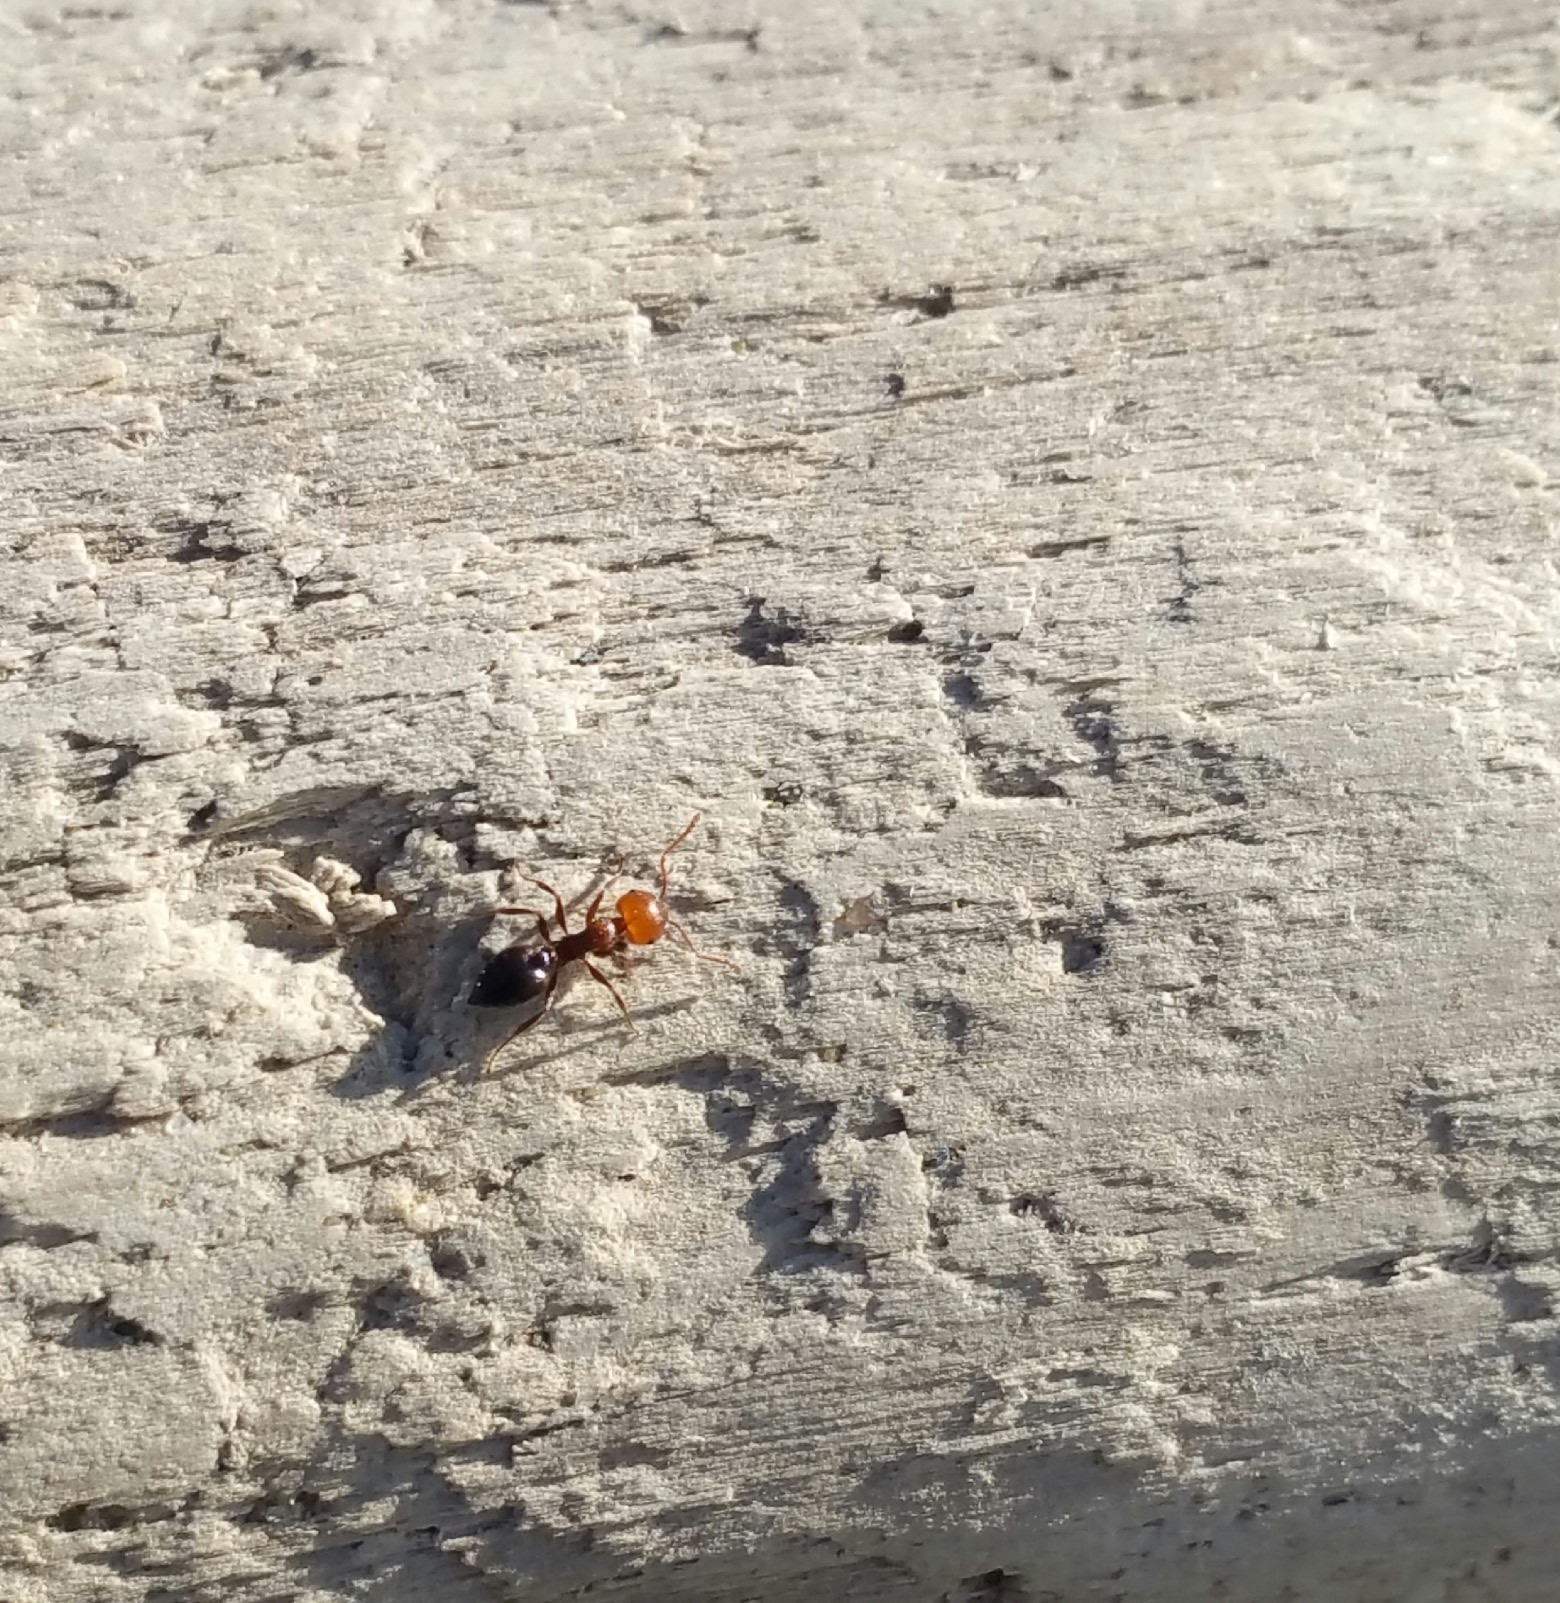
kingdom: Animalia
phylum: Arthropoda
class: Insecta
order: Hymenoptera
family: Formicidae
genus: Crematogaster
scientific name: Crematogaster scutellaris
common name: Fourmi du liège
